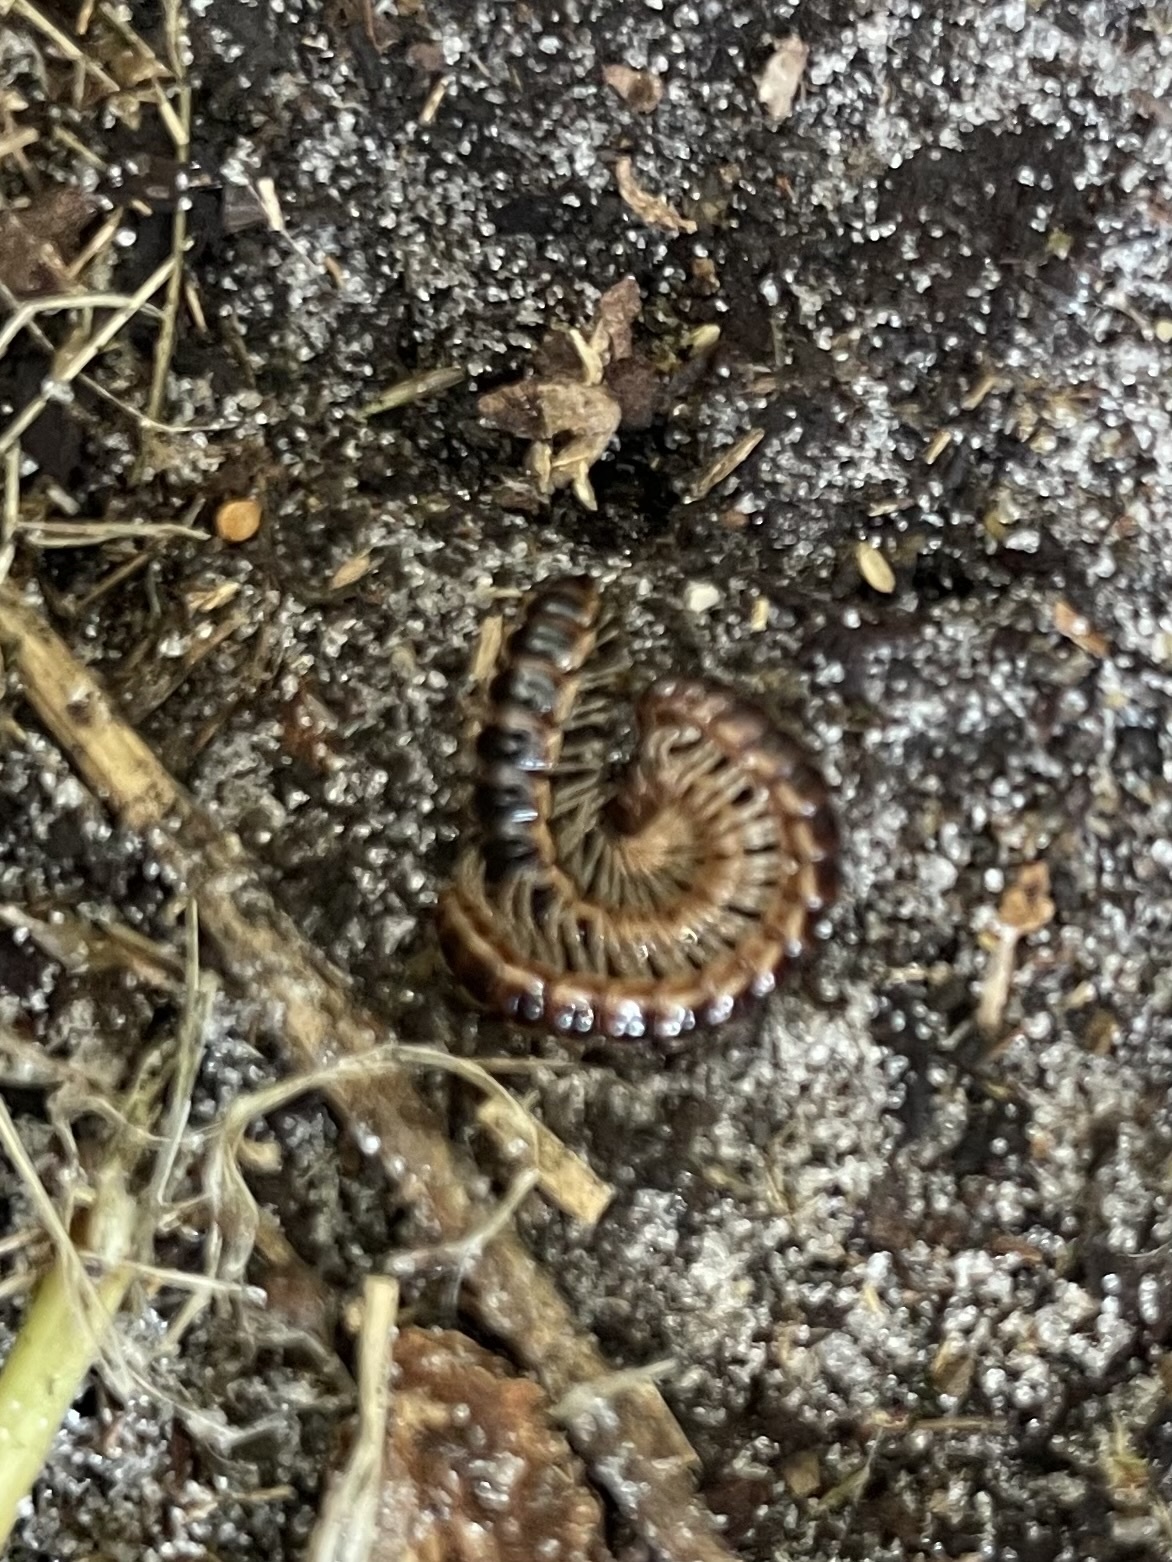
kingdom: Animalia
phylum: Arthropoda
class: Diplopoda
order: Polydesmida
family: Paradoxosomatidae
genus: Oxidus
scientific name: Oxidus gracilis
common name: Greenhouse millipede
